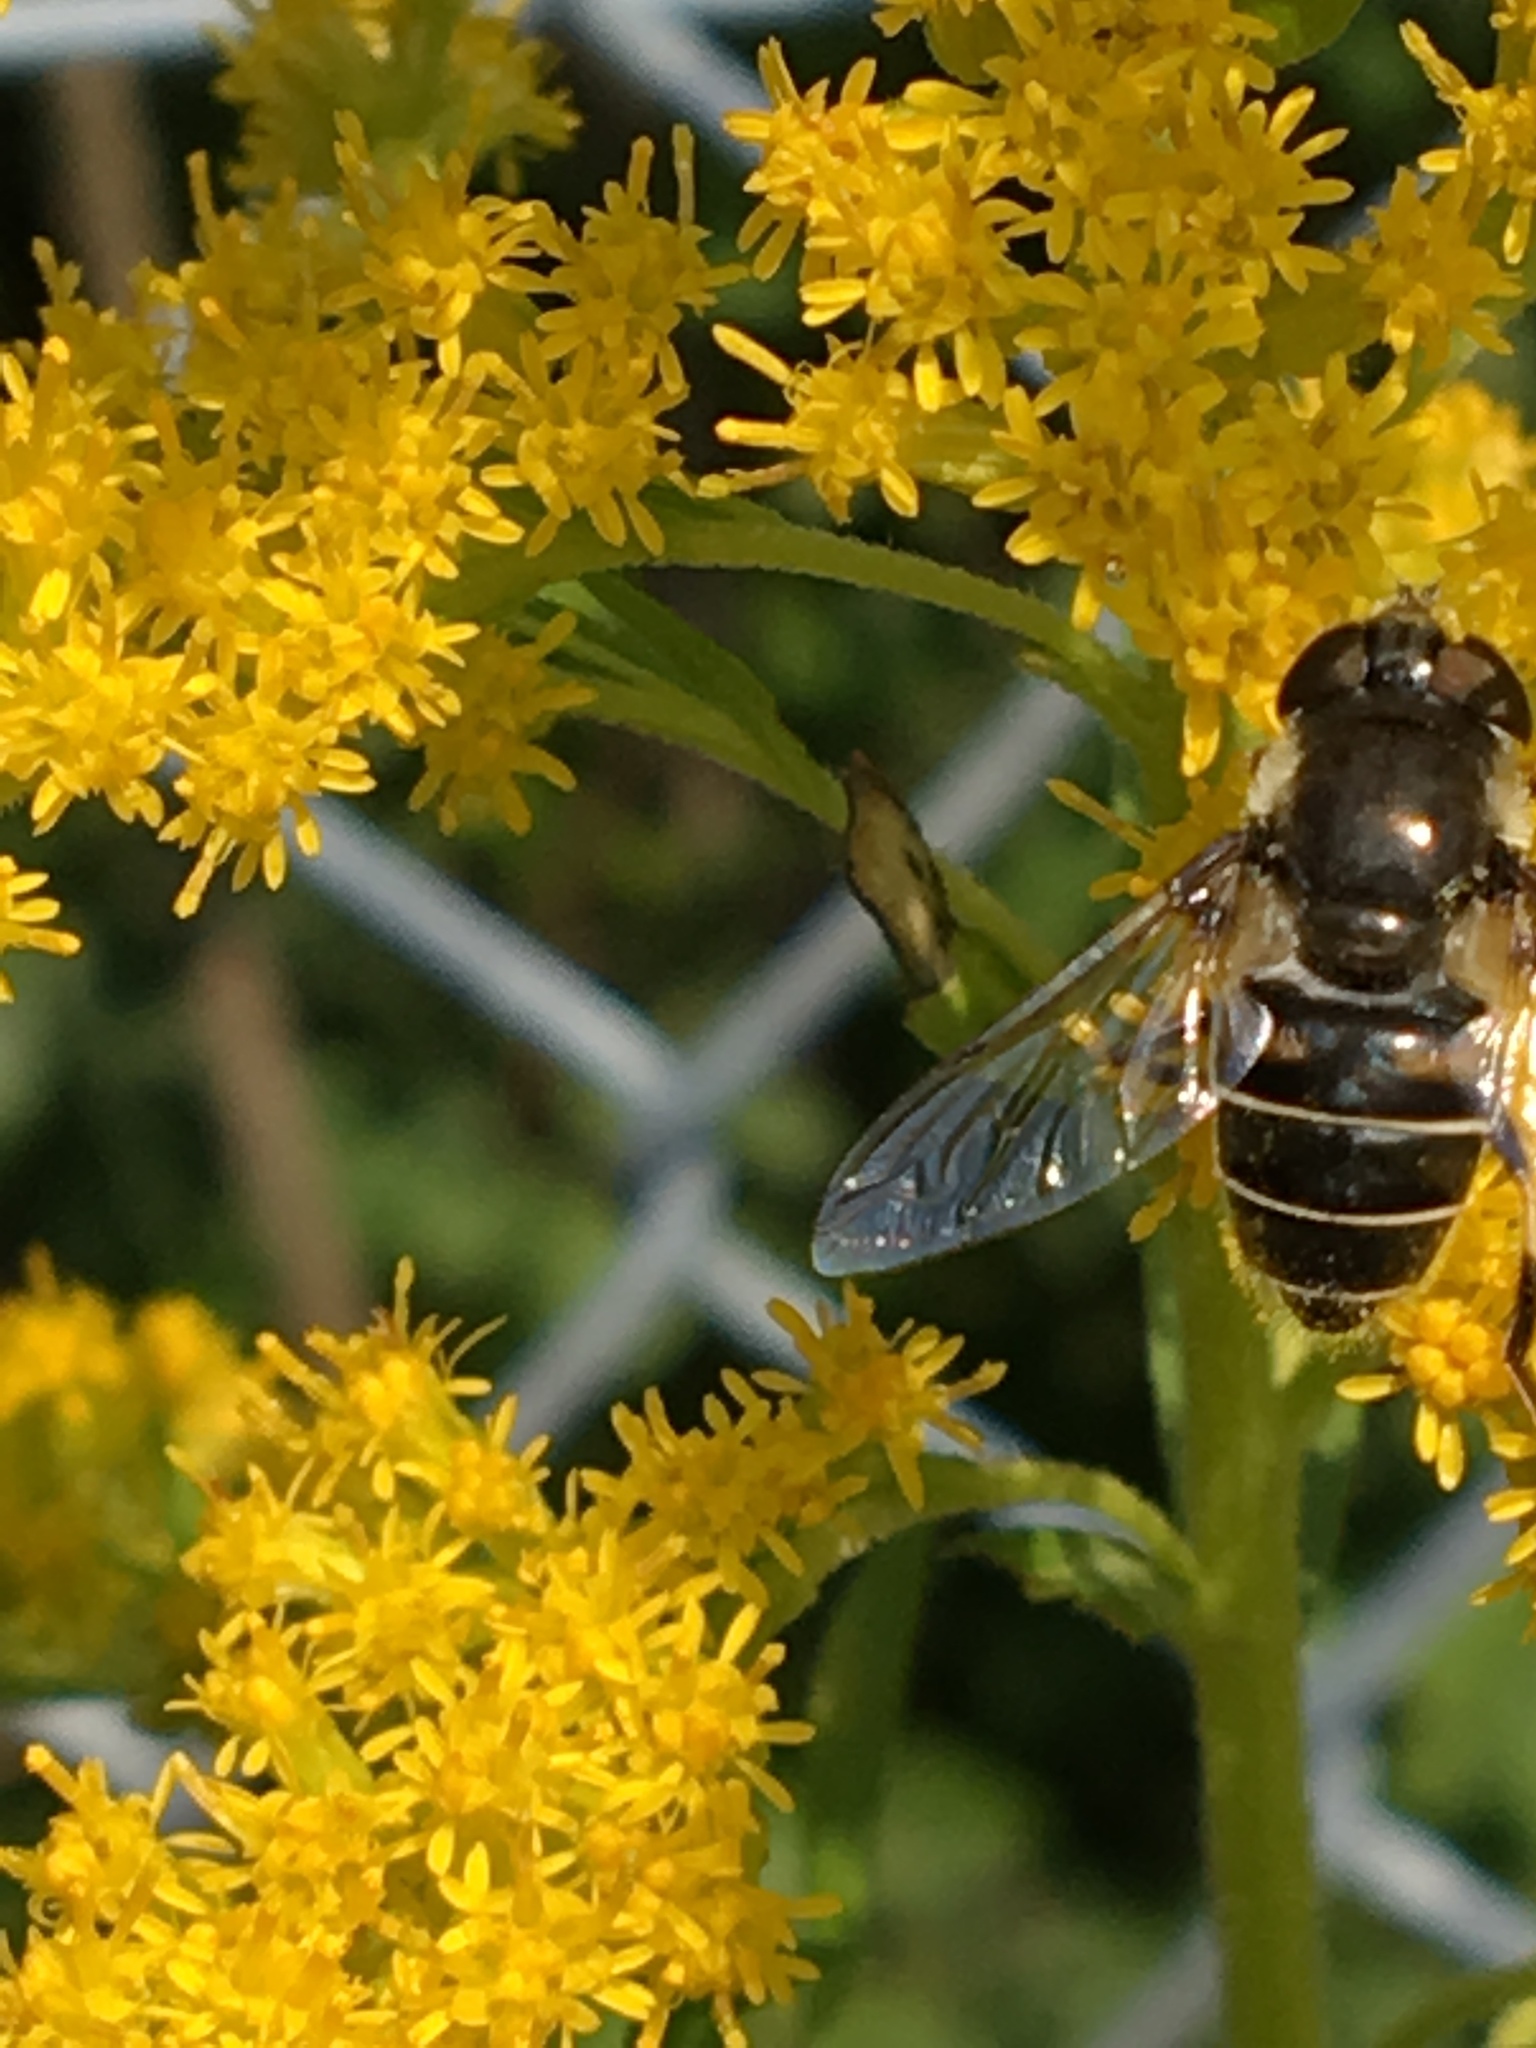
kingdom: Animalia
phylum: Arthropoda
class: Insecta
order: Diptera
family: Syrphidae
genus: Eristalis
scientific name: Eristalis dimidiata
